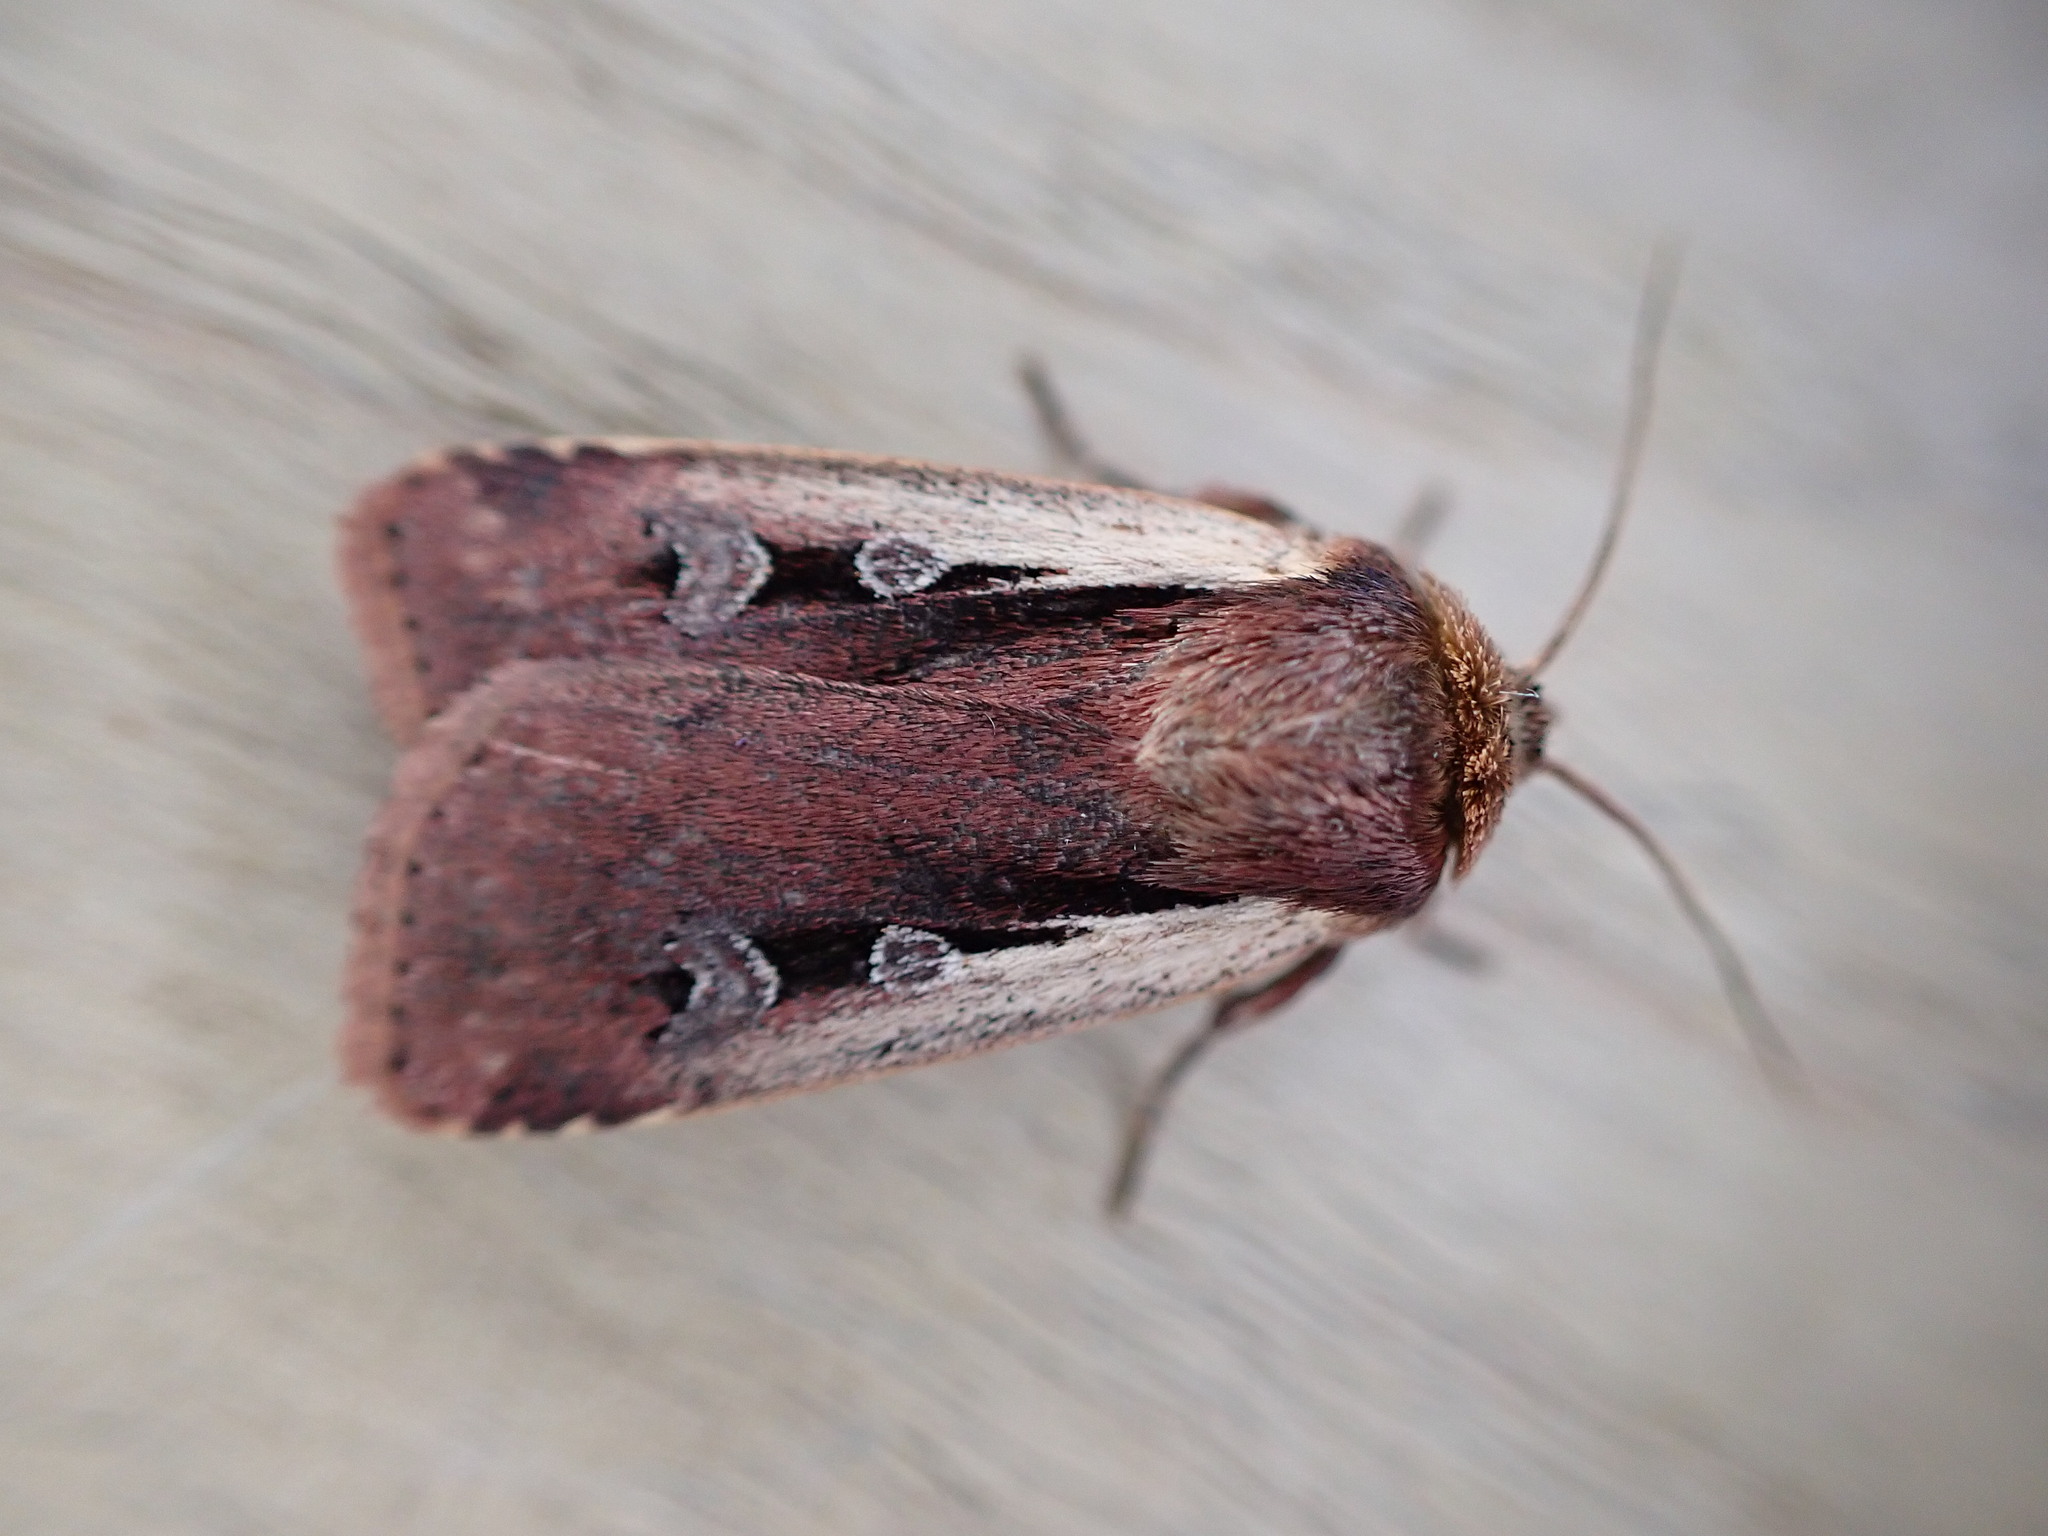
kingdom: Animalia
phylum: Arthropoda
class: Insecta
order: Lepidoptera
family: Noctuidae
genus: Ochropleura
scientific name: Ochropleura plecta
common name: Flame shoulder
